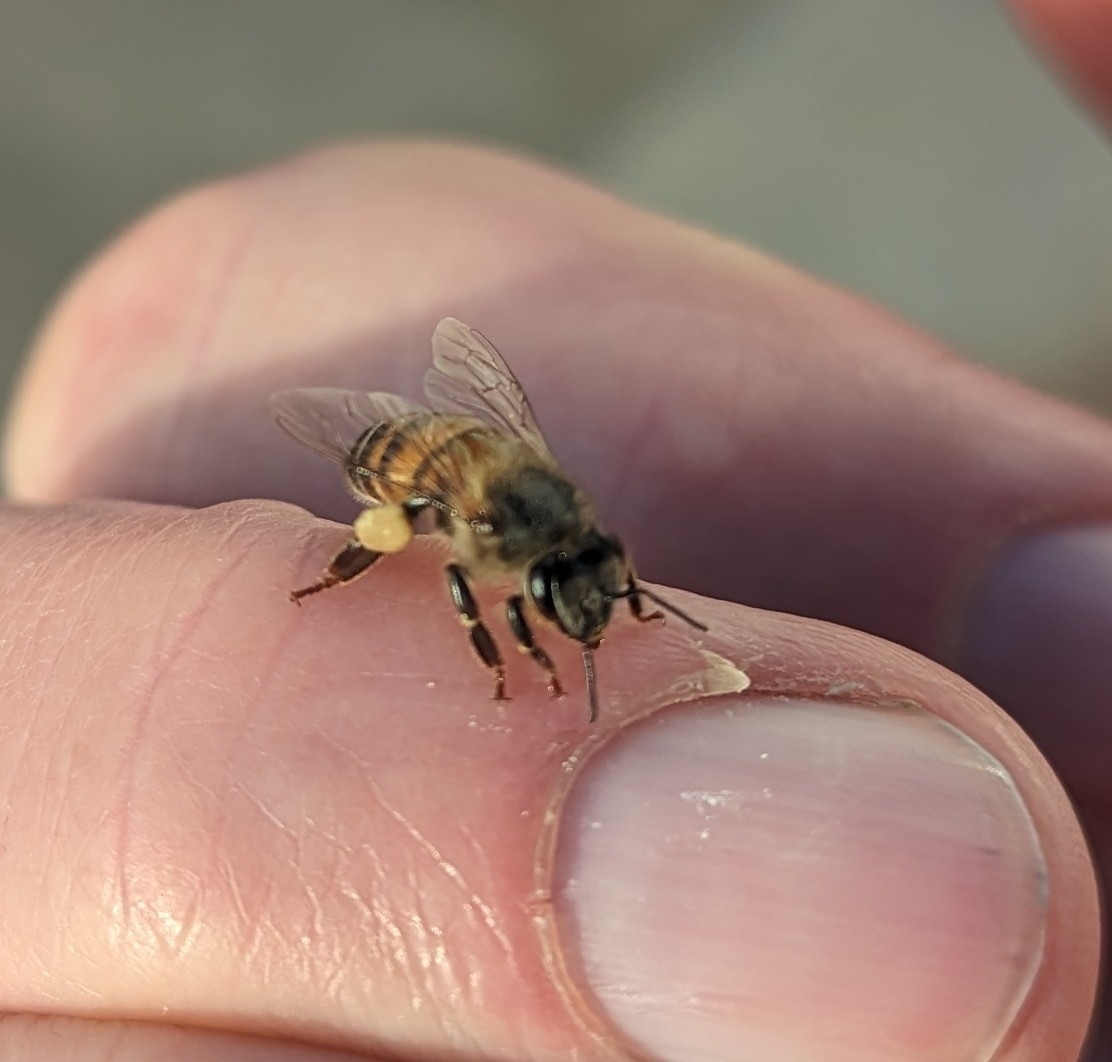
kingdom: Animalia
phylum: Arthropoda
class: Insecta
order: Hymenoptera
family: Apidae
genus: Apis
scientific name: Apis mellifera
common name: Honey bee
